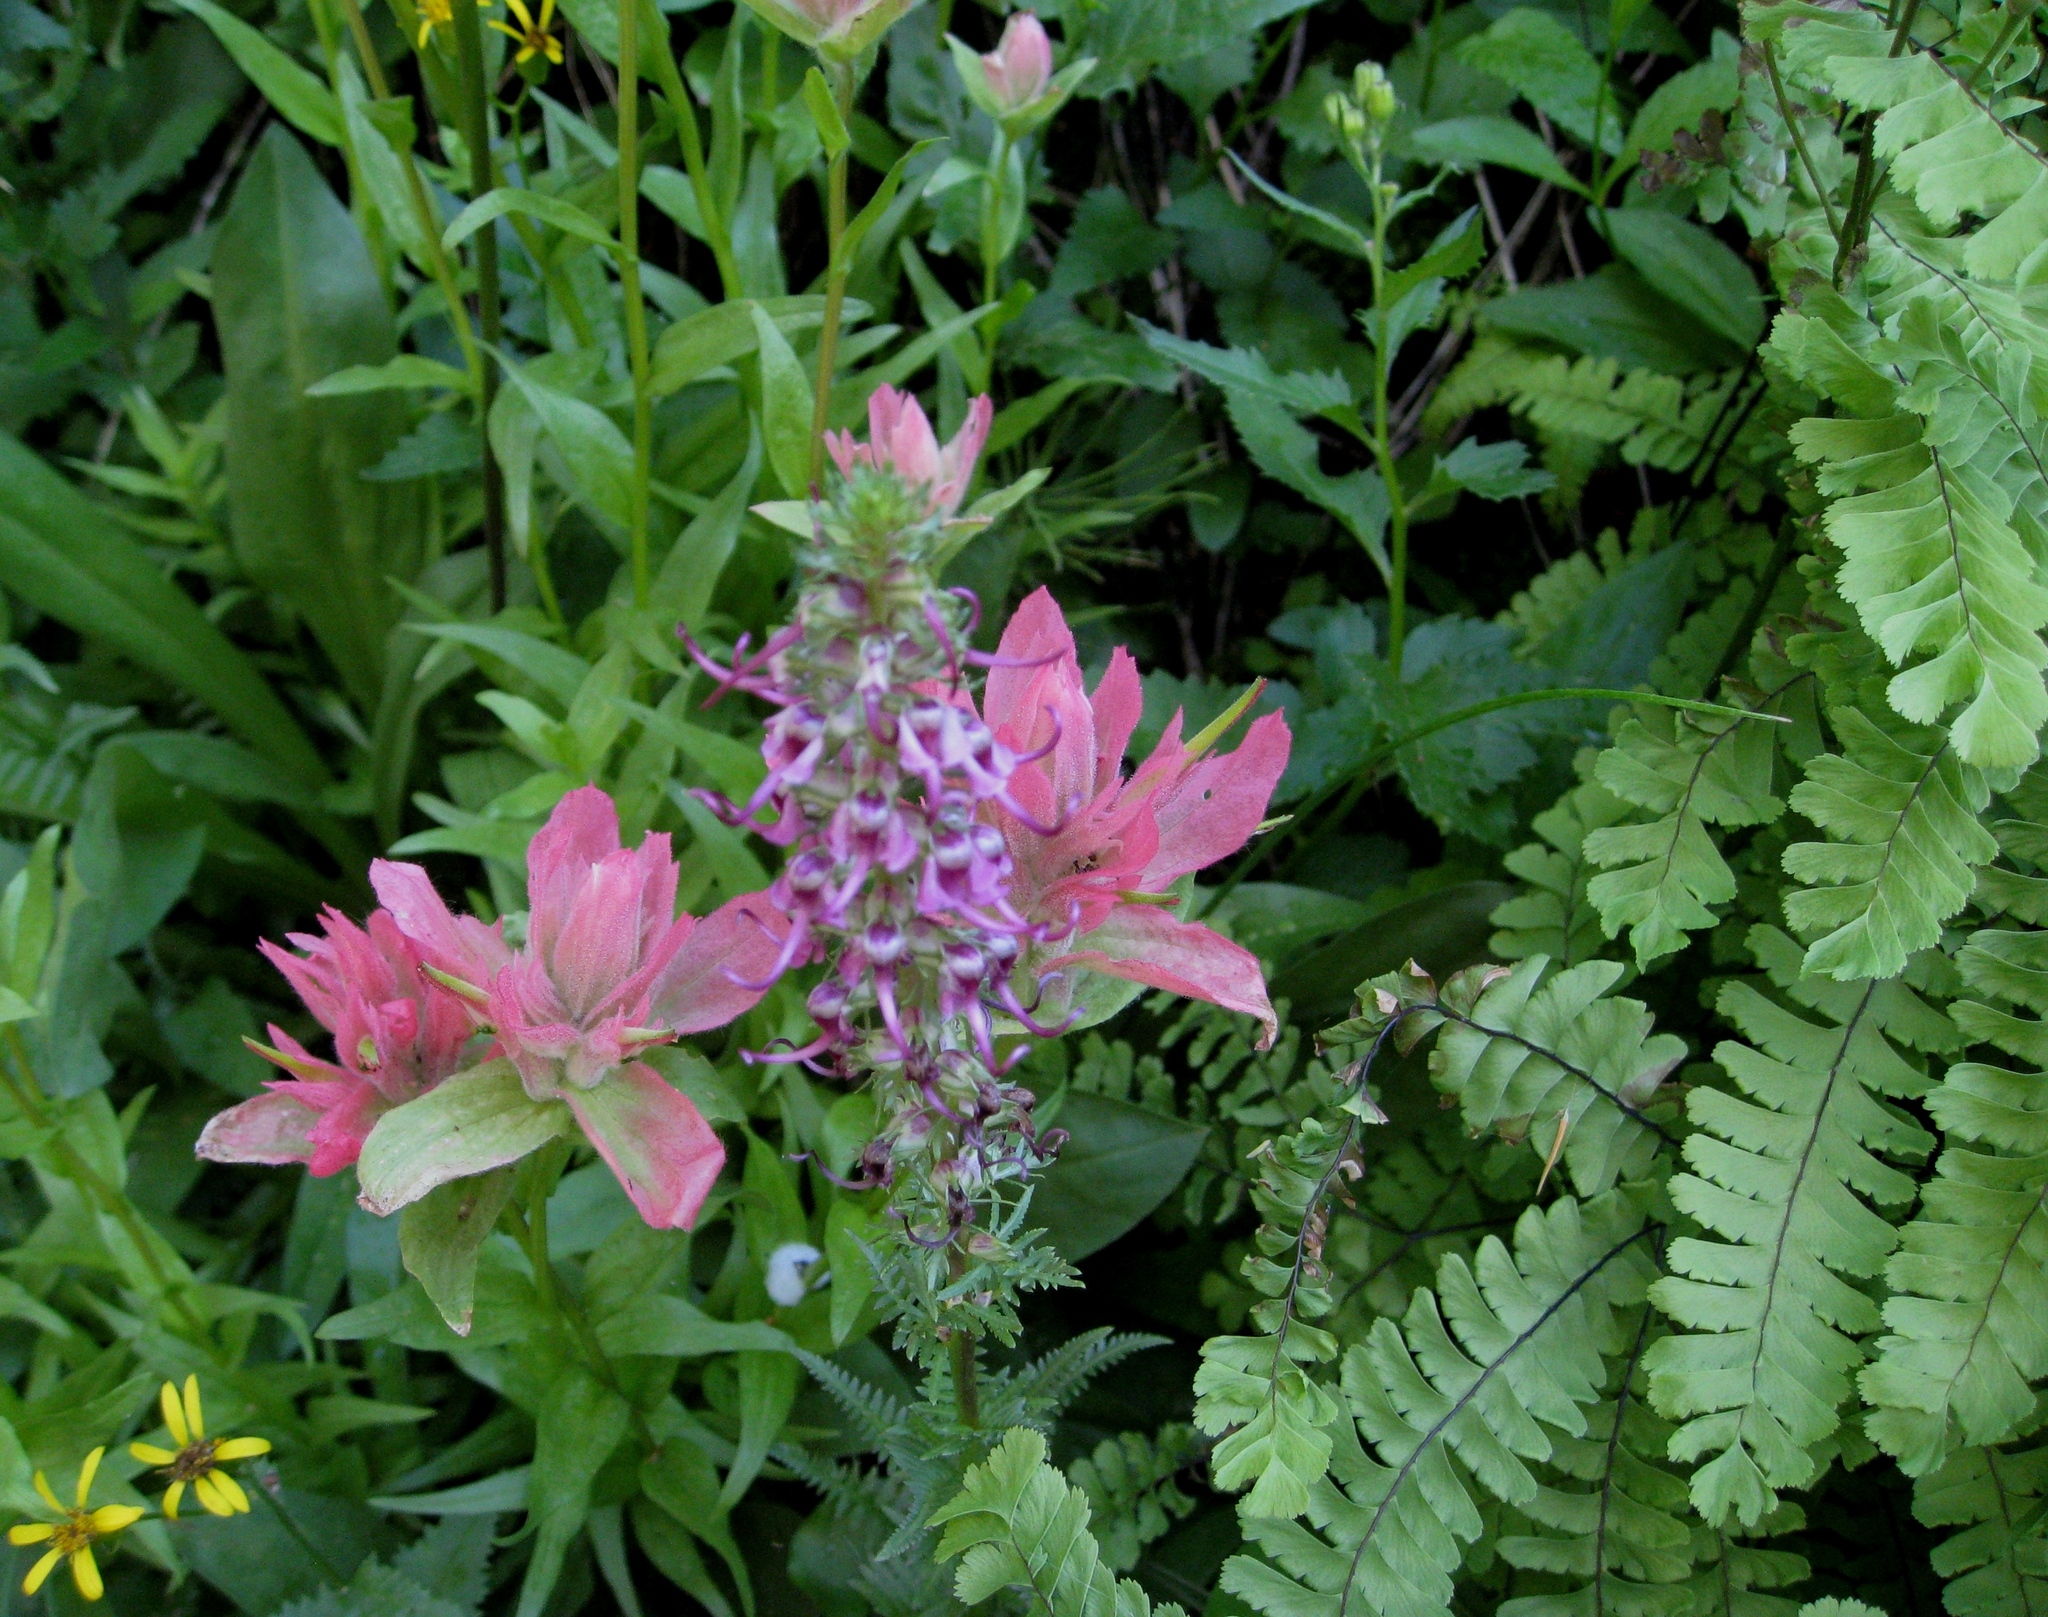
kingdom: Plantae
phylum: Tracheophyta
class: Polypodiopsida
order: Polypodiales
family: Pteridaceae
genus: Adiantum
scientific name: Adiantum aleuticum
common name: Aleutian maidenhair fern
